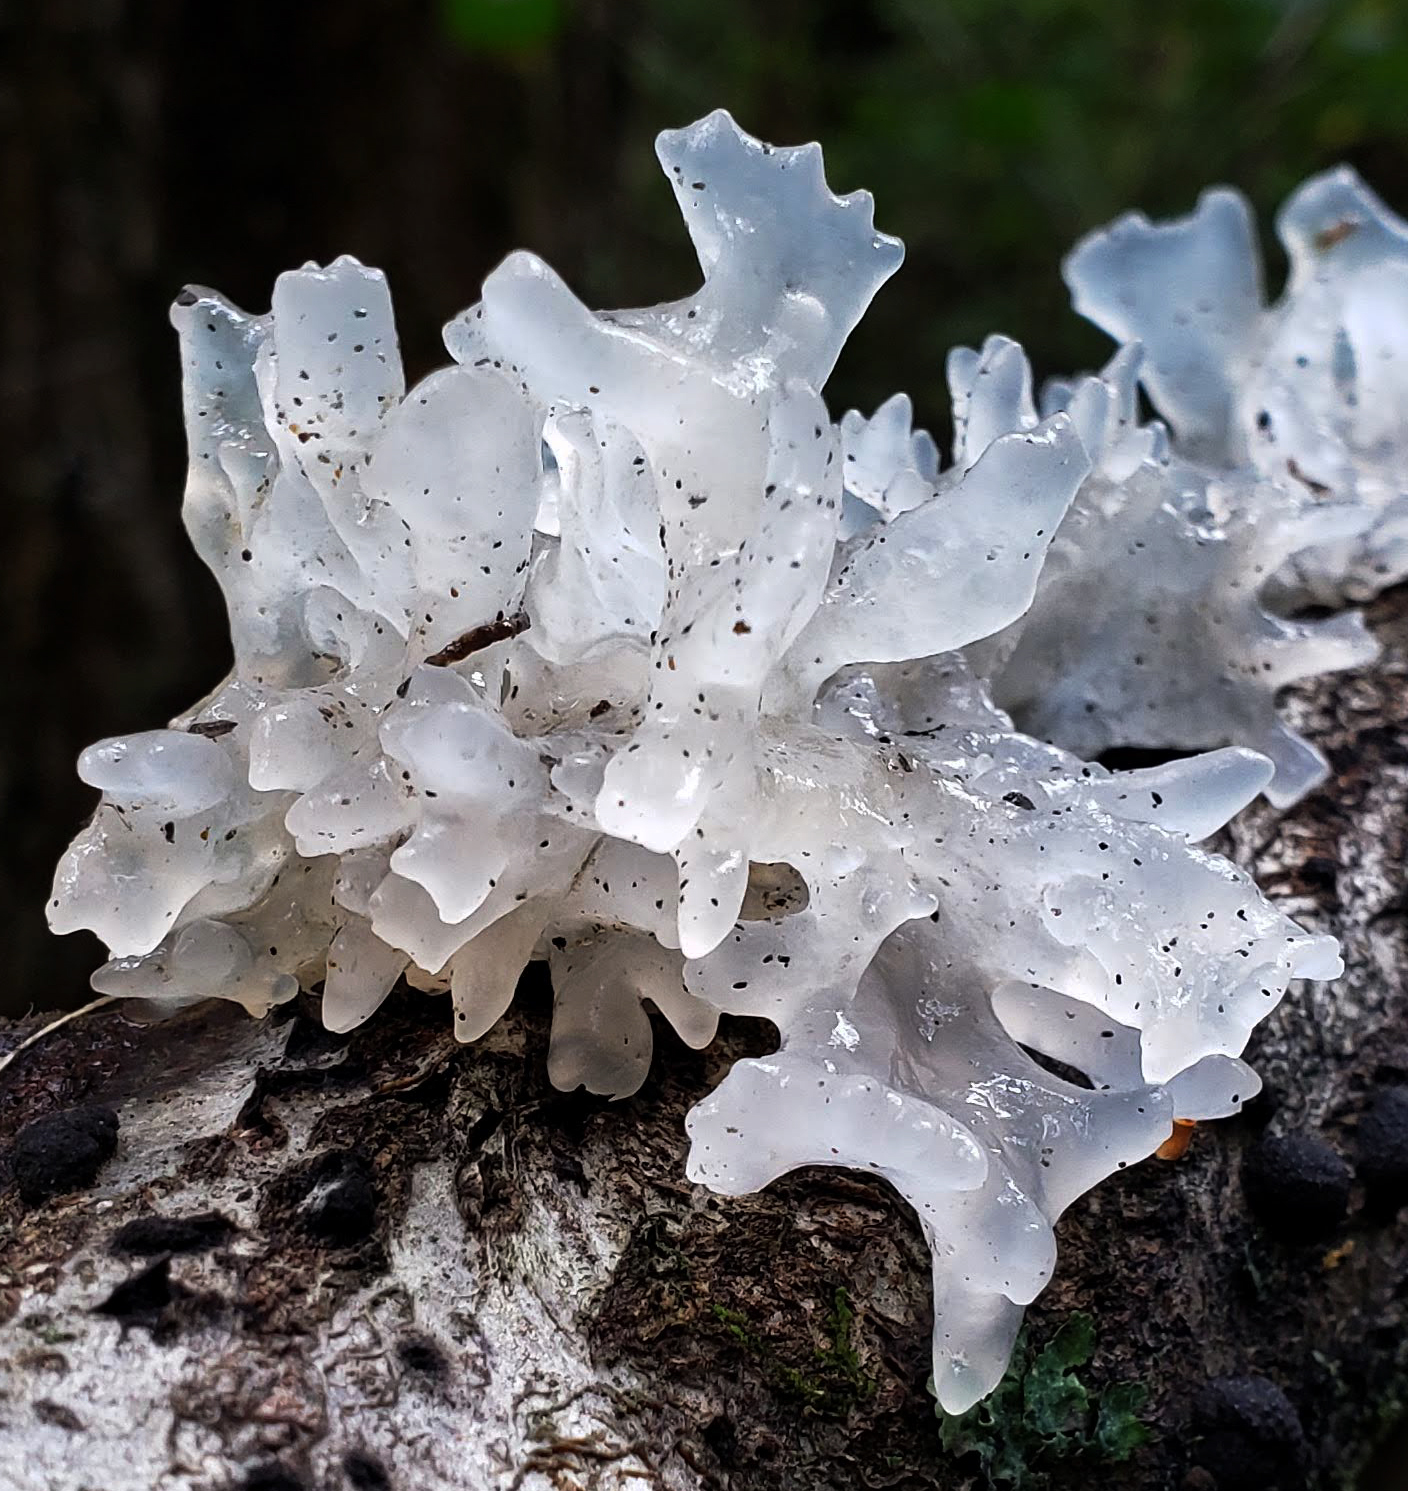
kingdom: Fungi
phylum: Basidiomycota
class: Tremellomycetes
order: Tremellales
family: Tremellaceae
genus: Tremella
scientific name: Tremella fuciformis
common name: Snow fungus
